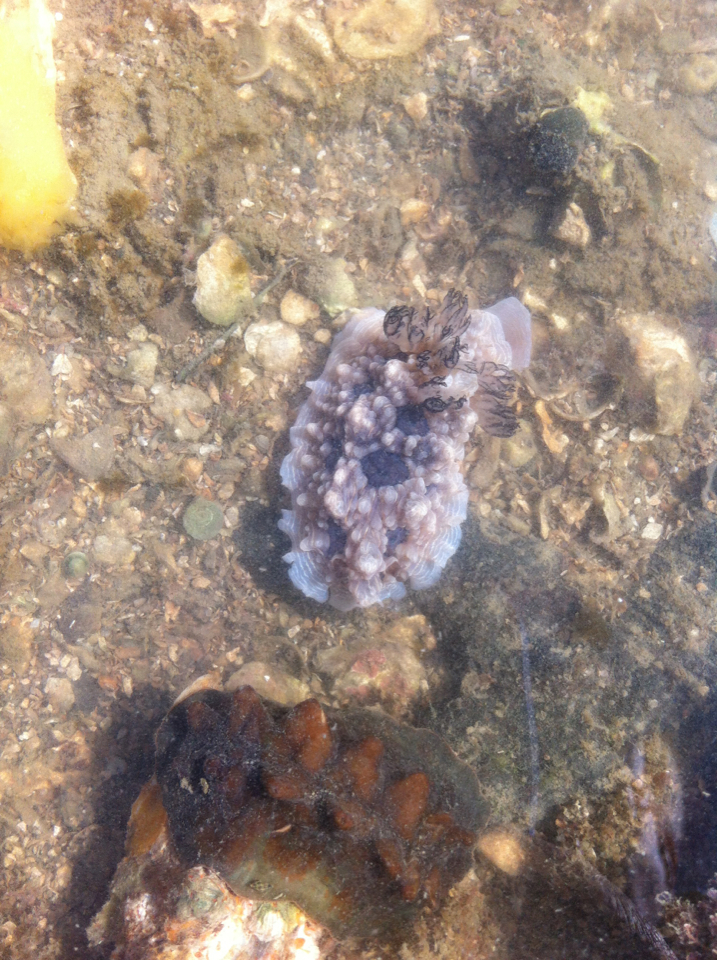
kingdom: Animalia
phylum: Mollusca
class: Gastropoda
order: Nudibranchia
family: Dendrodorididae
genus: Dendrodoris
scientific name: Dendrodoris krusensternii
